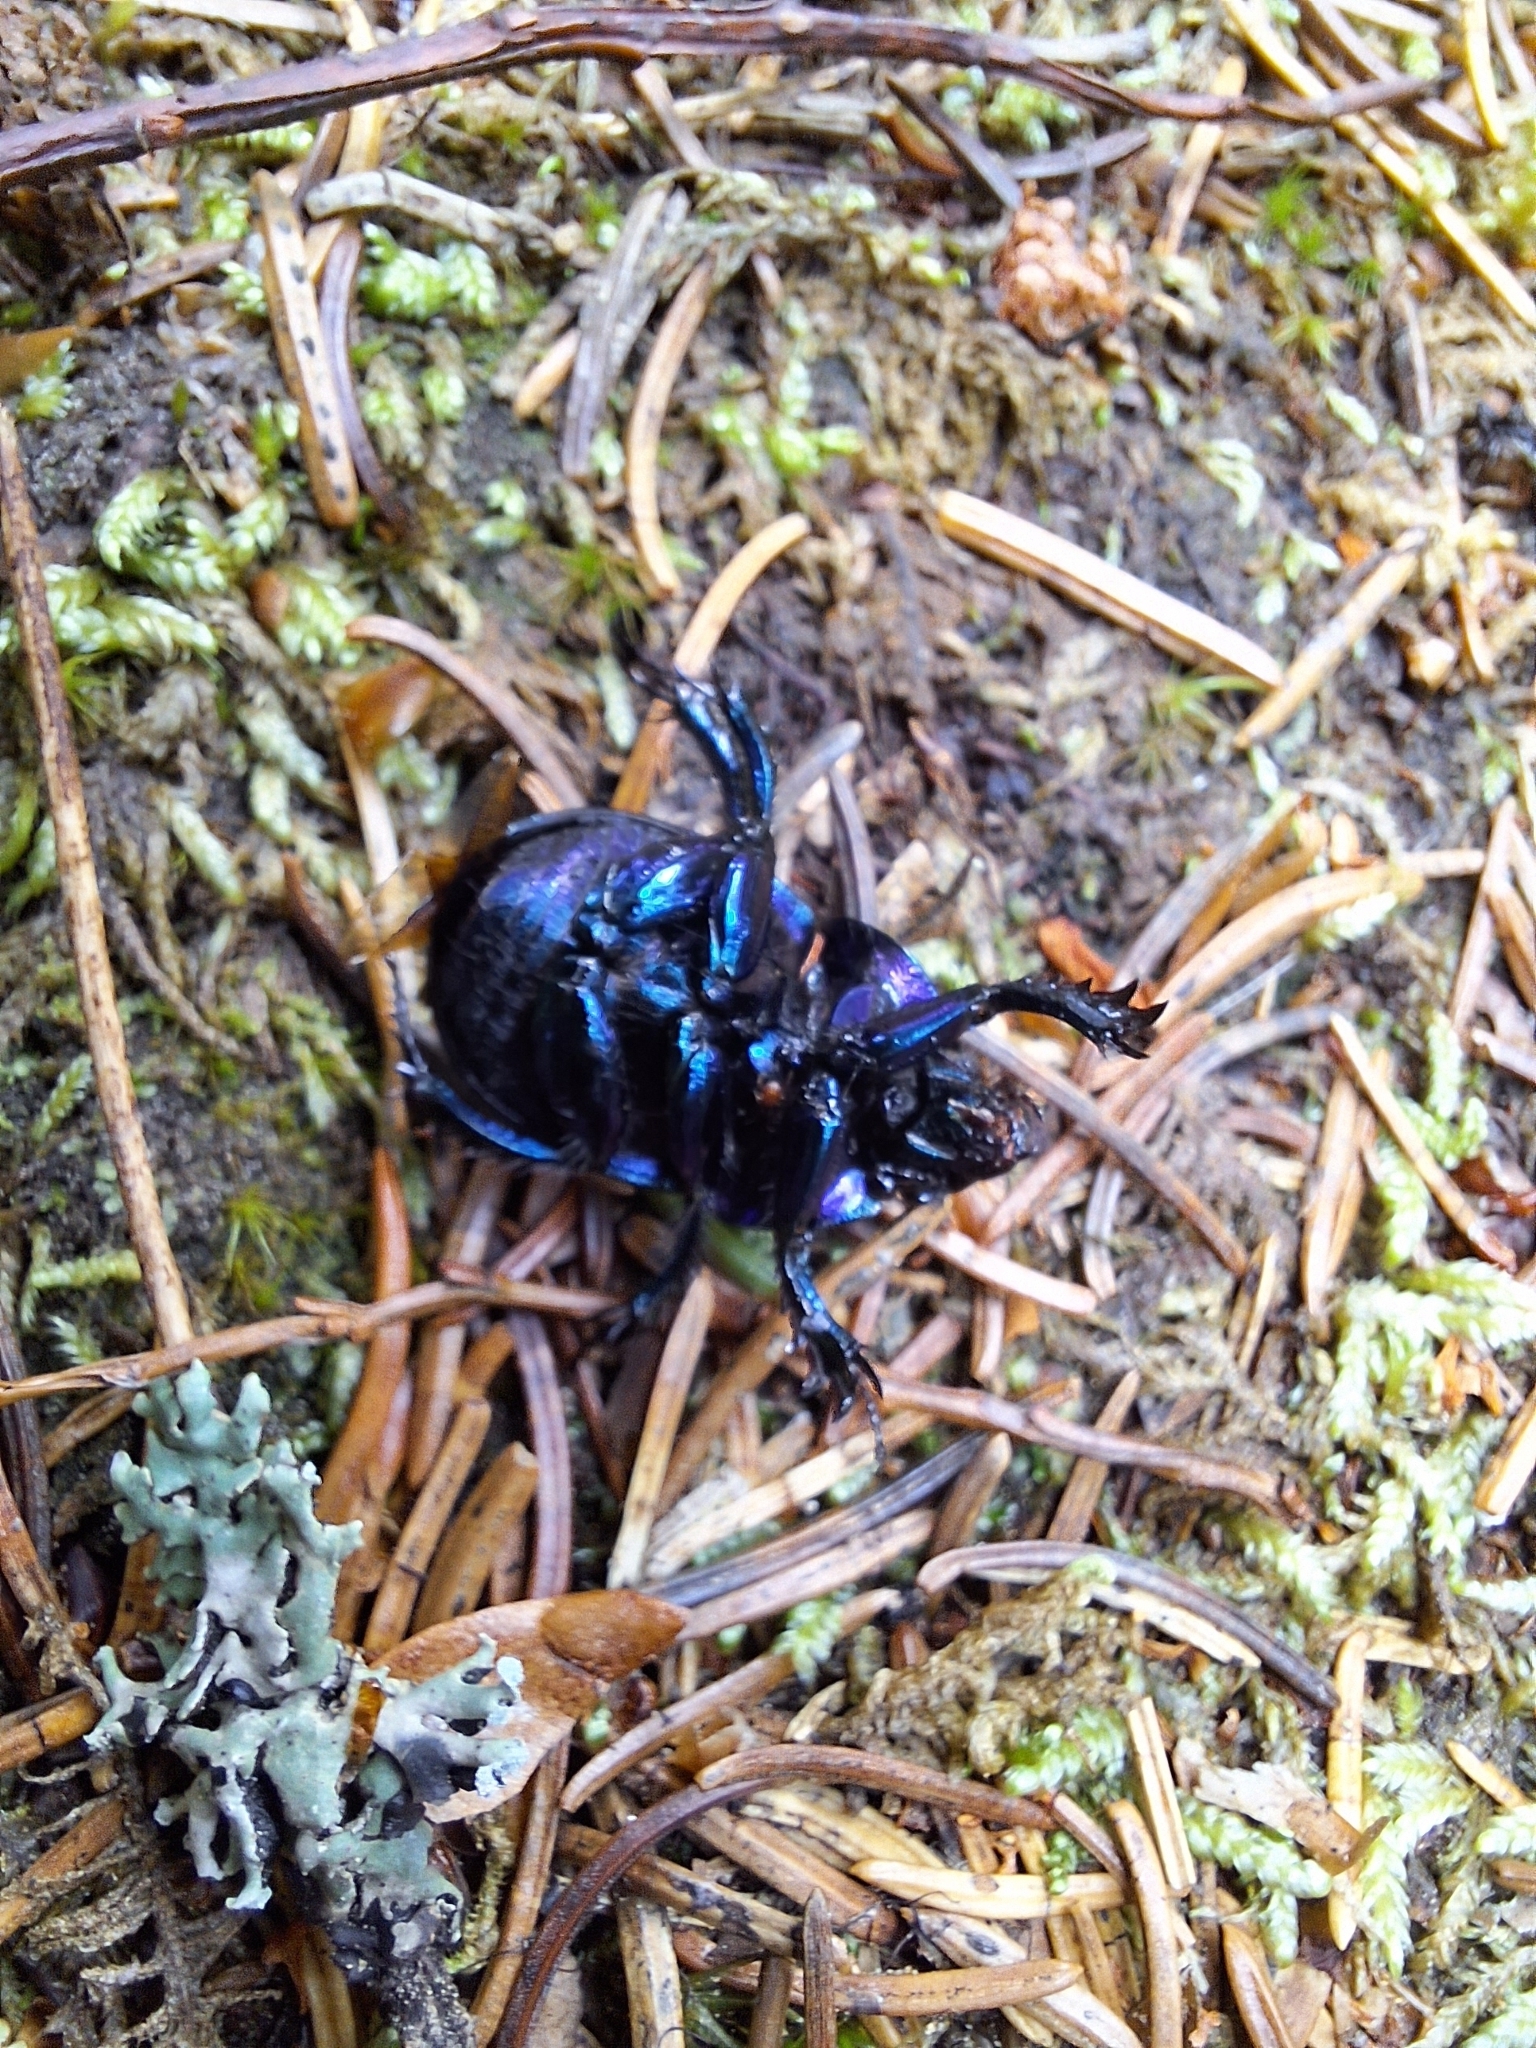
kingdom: Animalia
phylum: Arthropoda
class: Insecta
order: Coleoptera
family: Geotrupidae
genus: Anoplotrupes
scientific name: Anoplotrupes stercorosus
